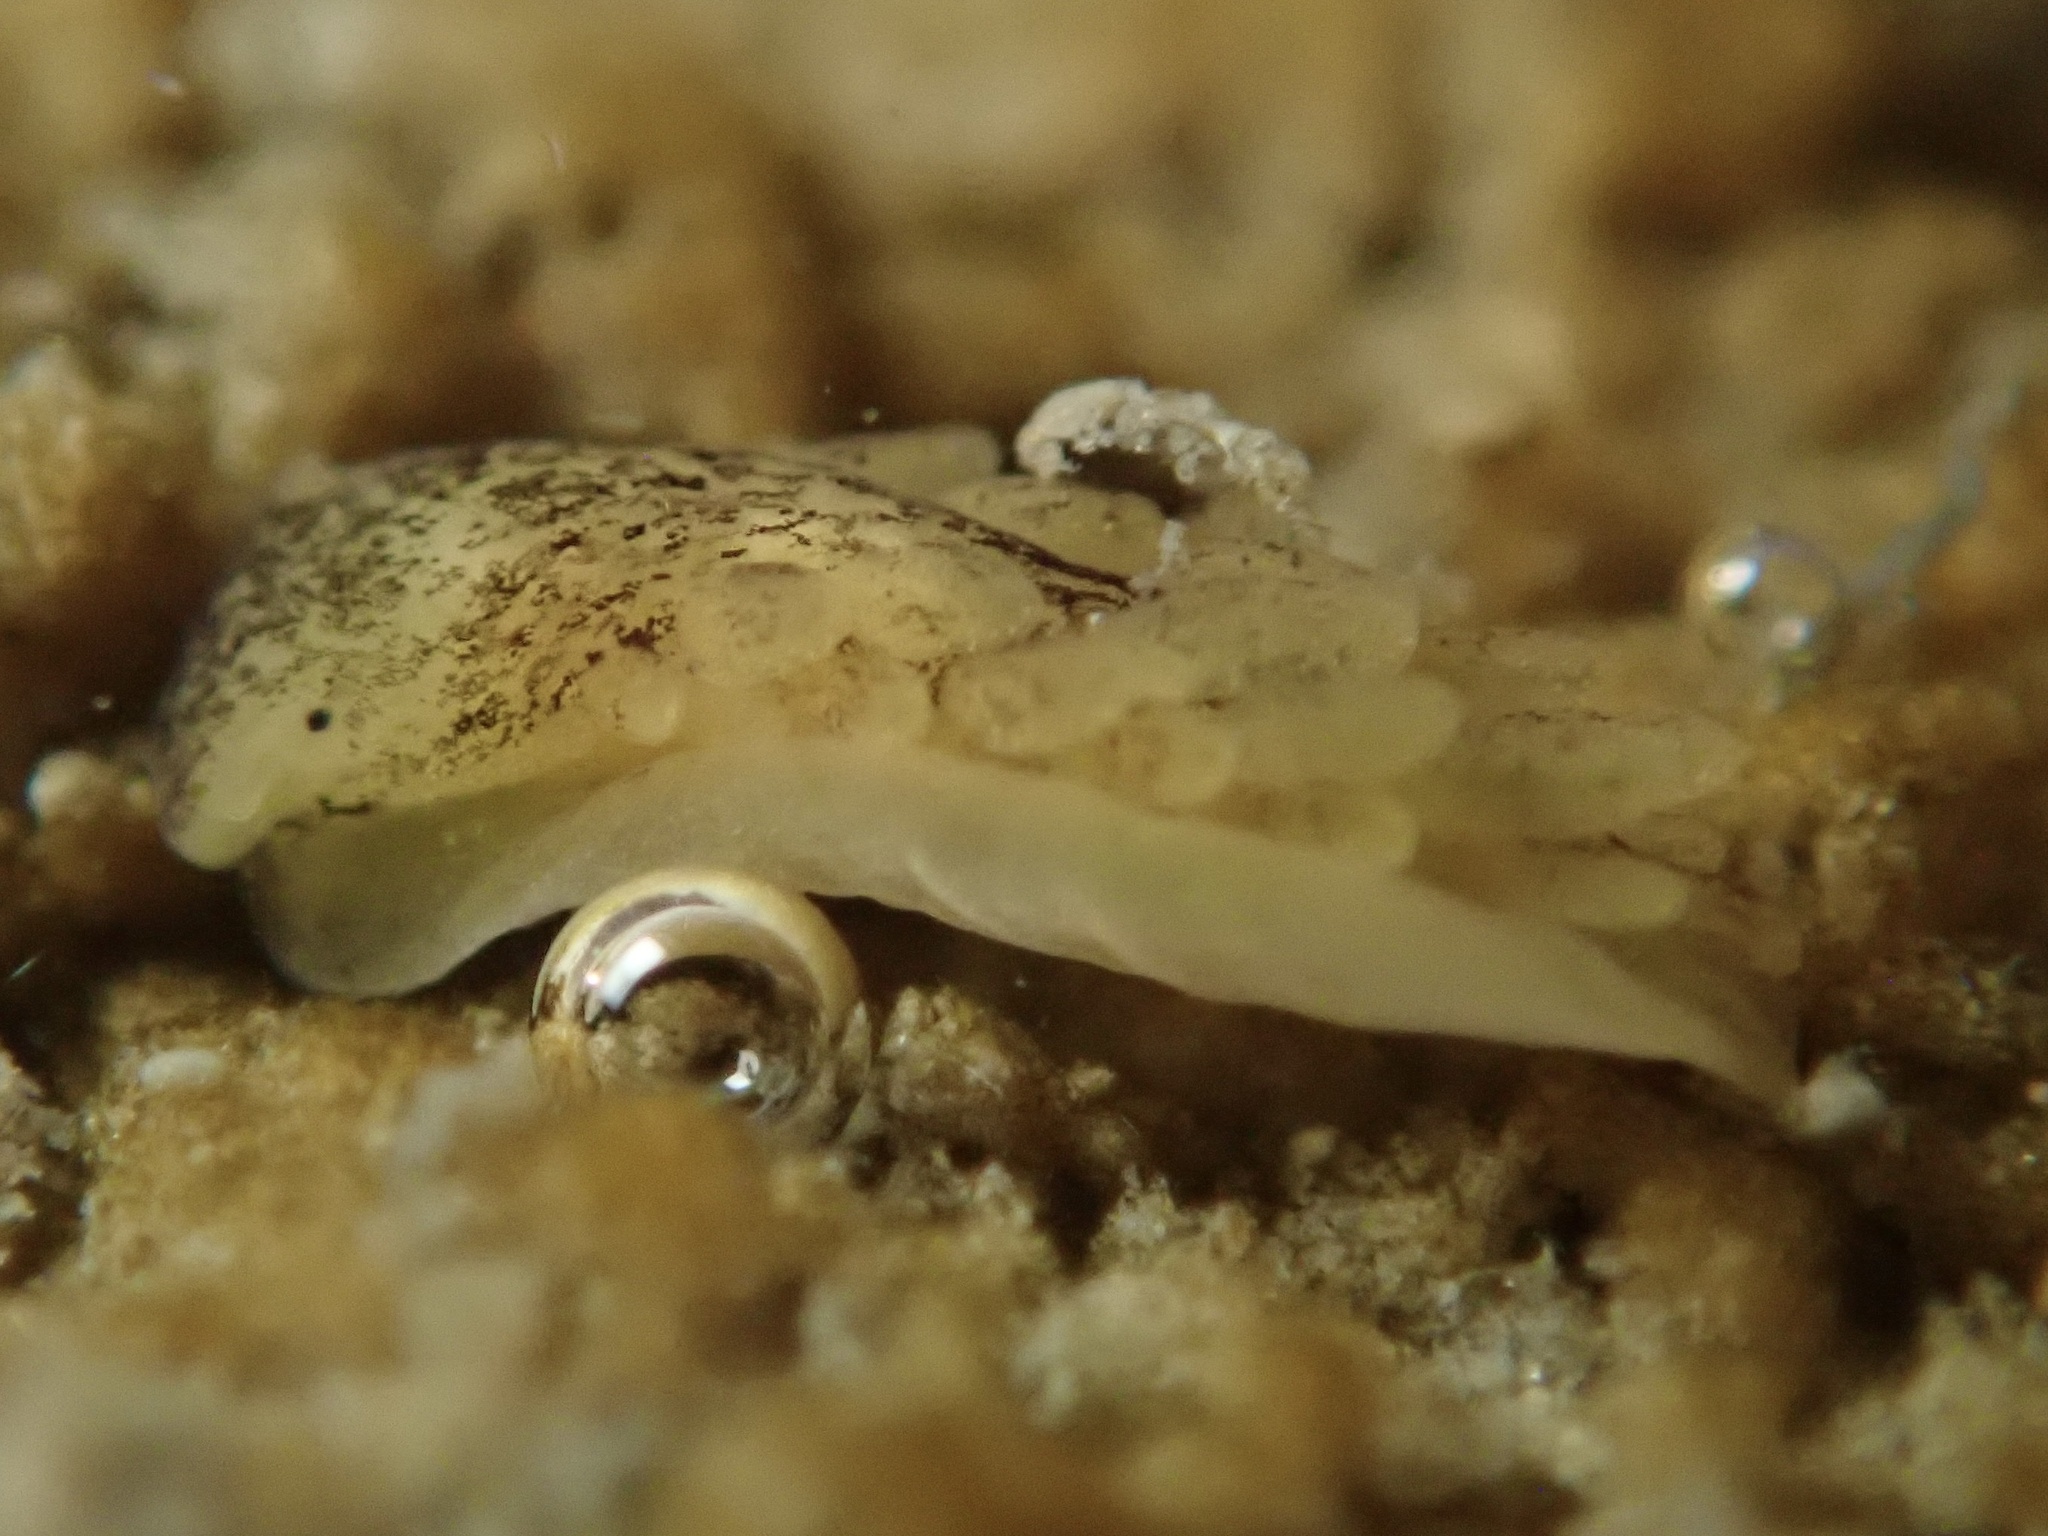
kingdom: Animalia
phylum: Mollusca
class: Gastropoda
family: Limapontiidae
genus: Alderia
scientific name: Alderia modesta
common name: Modest alderia
